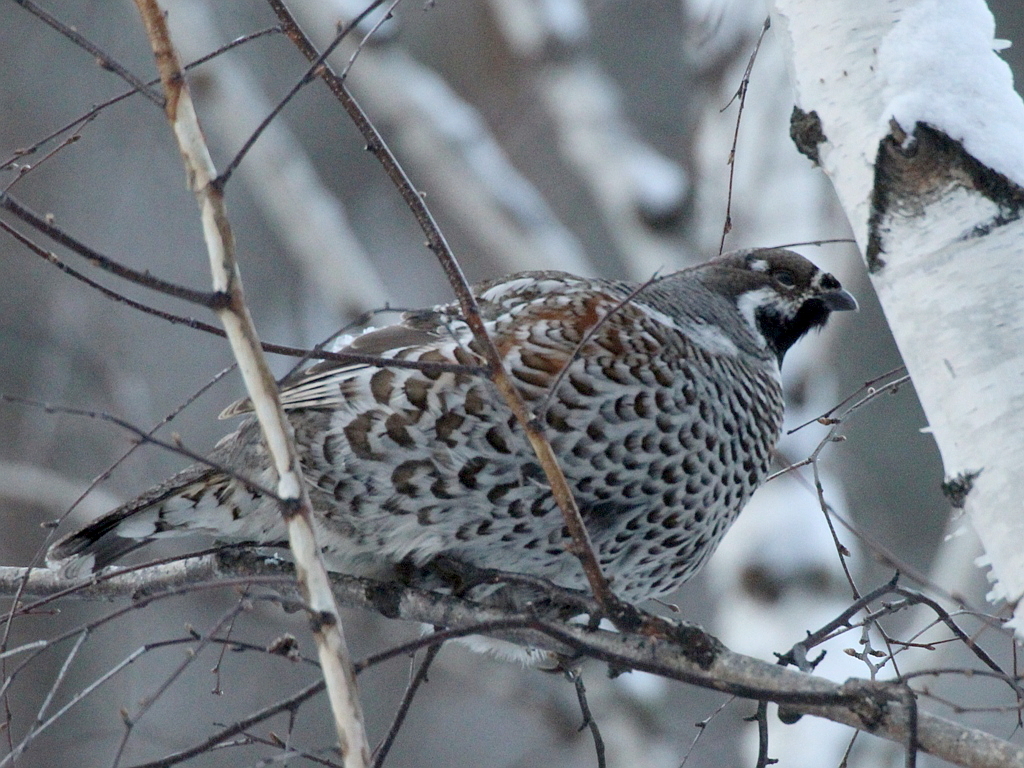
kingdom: Animalia
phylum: Chordata
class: Aves
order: Galliformes
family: Phasianidae
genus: Tetrastes
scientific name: Tetrastes bonasia
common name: Hazel grouse
